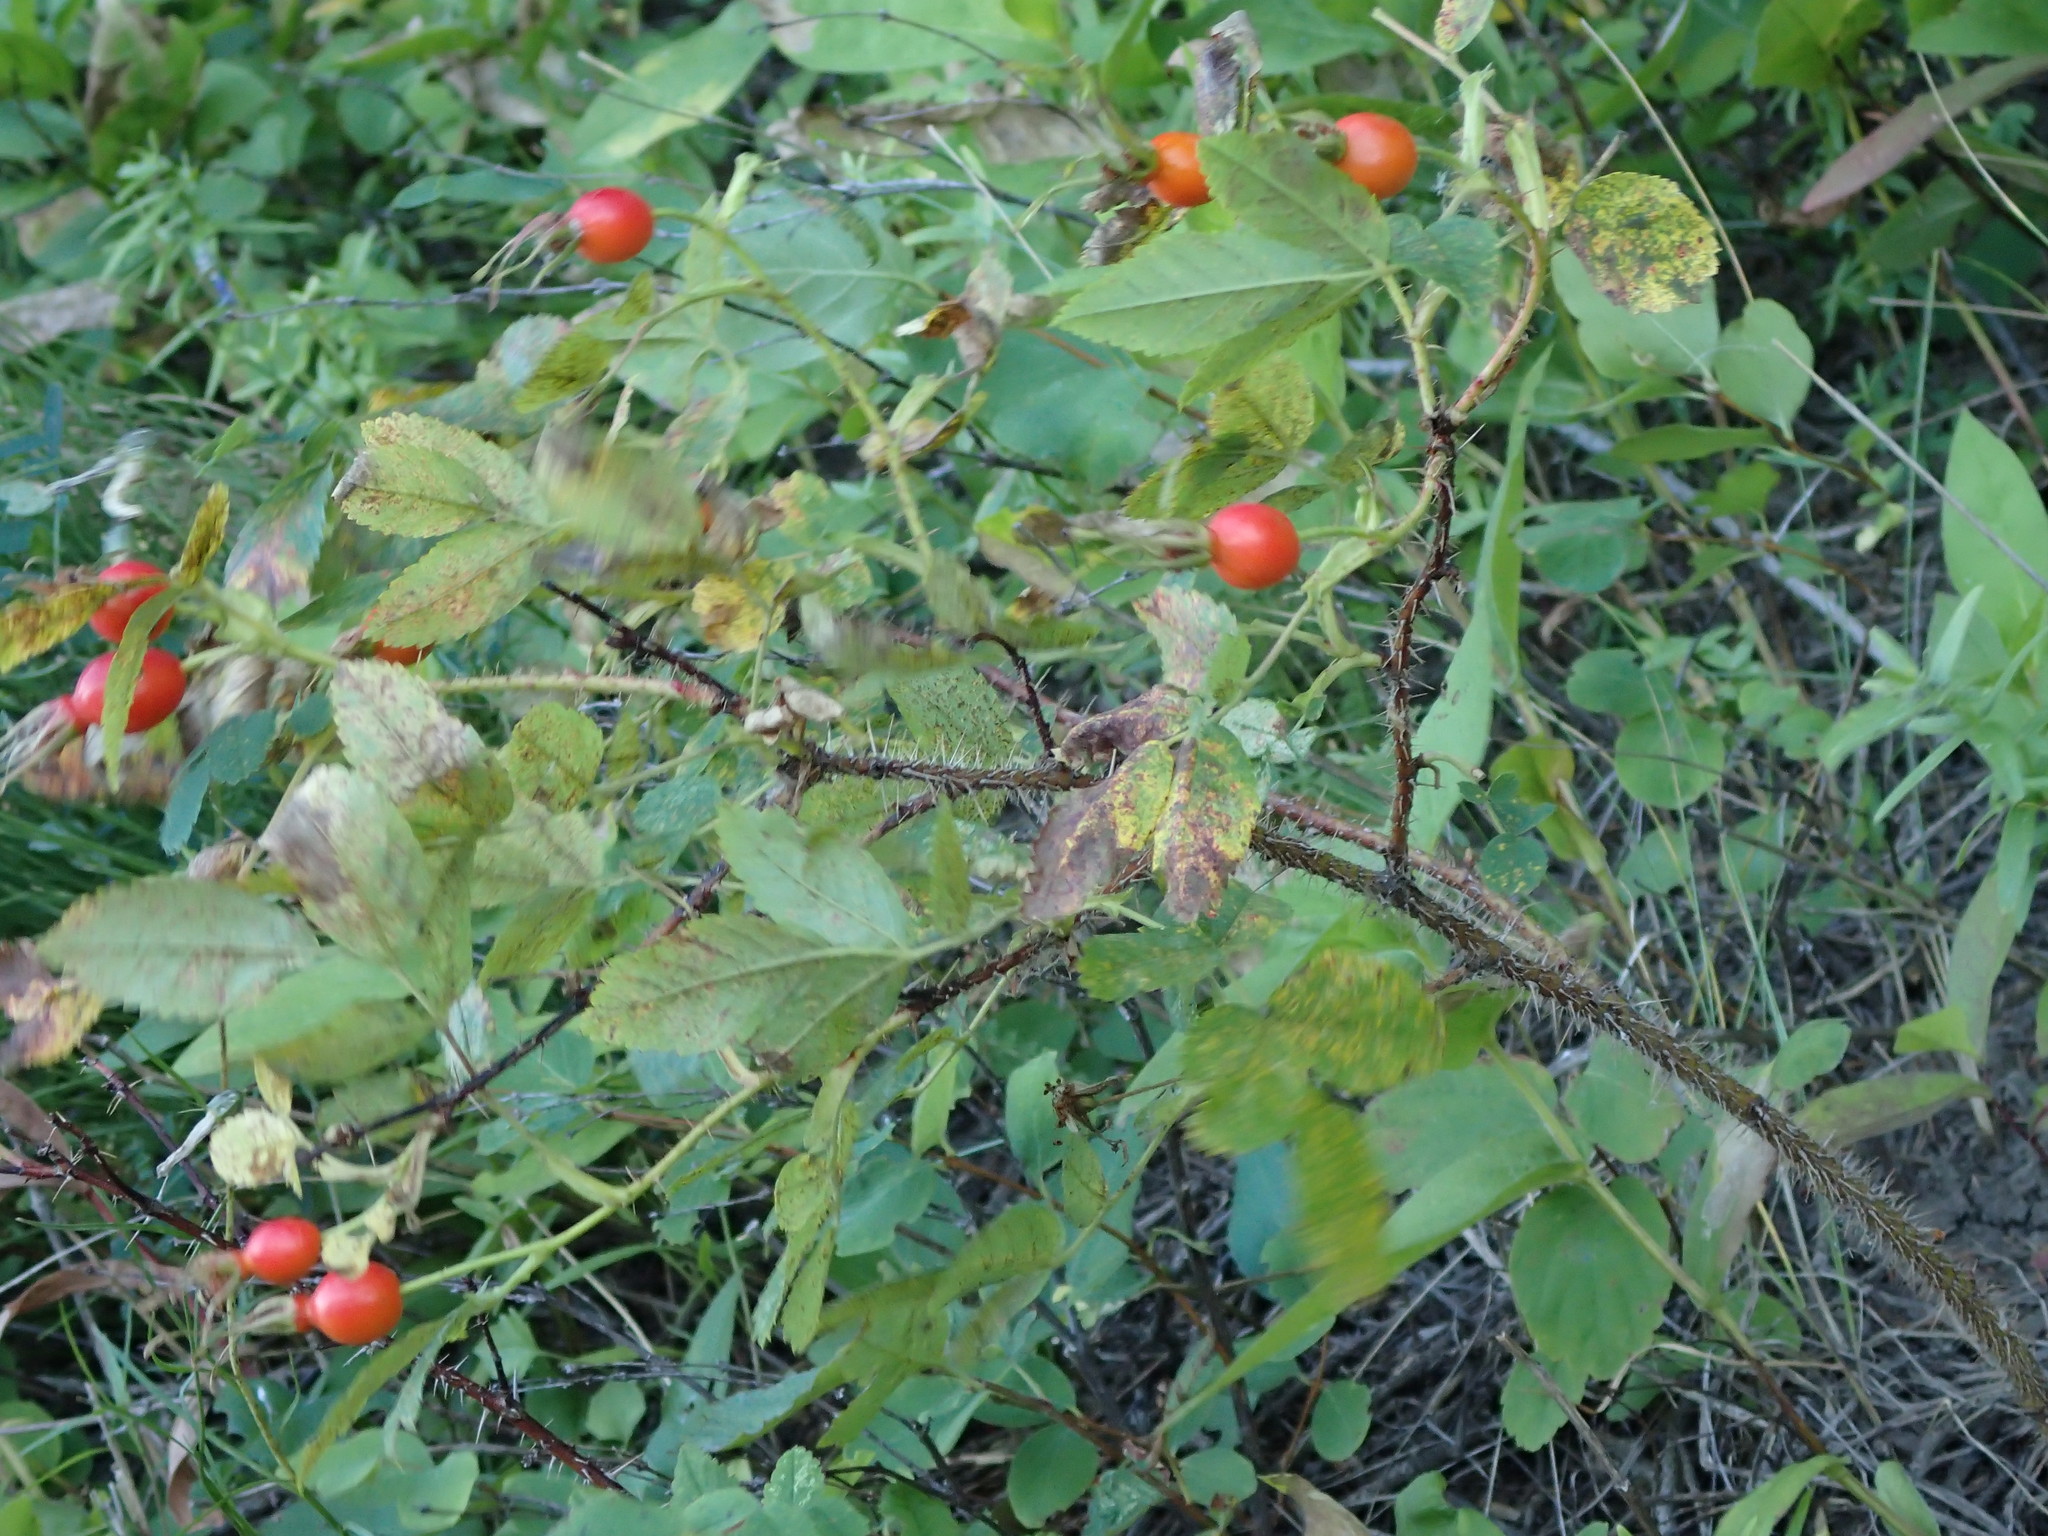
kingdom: Plantae
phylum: Tracheophyta
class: Magnoliopsida
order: Rosales
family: Rosaceae
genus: Rosa
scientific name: Rosa acicularis
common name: Prickly rose
